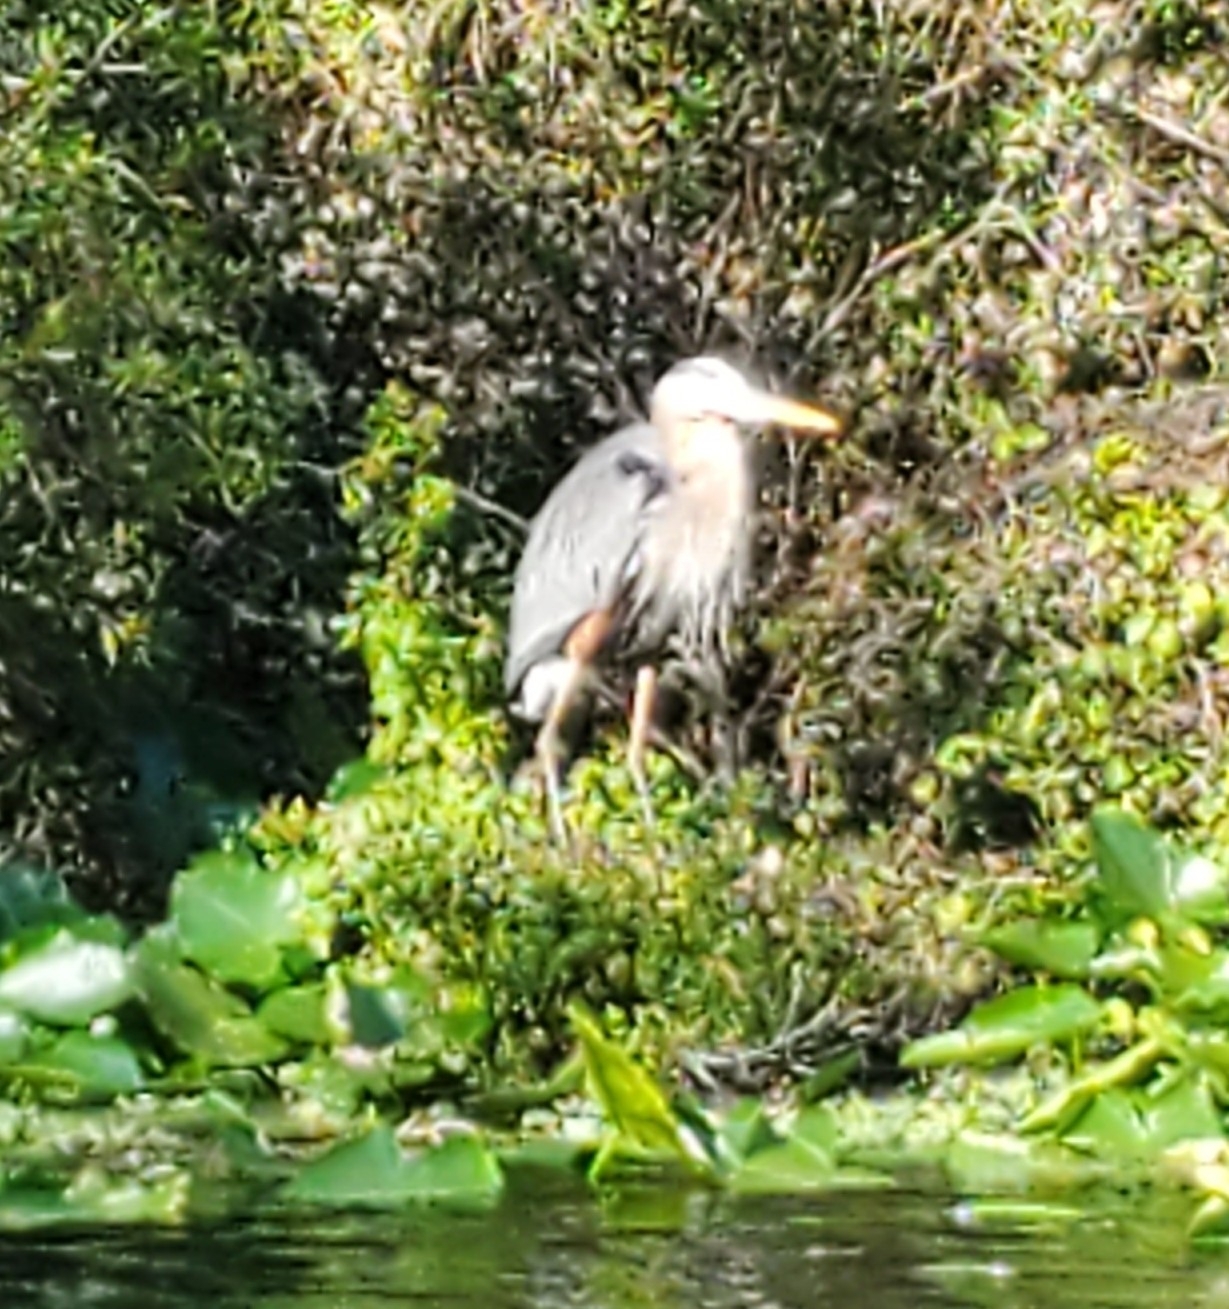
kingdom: Animalia
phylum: Chordata
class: Aves
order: Pelecaniformes
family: Ardeidae
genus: Ardea
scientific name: Ardea herodias
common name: Great blue heron
